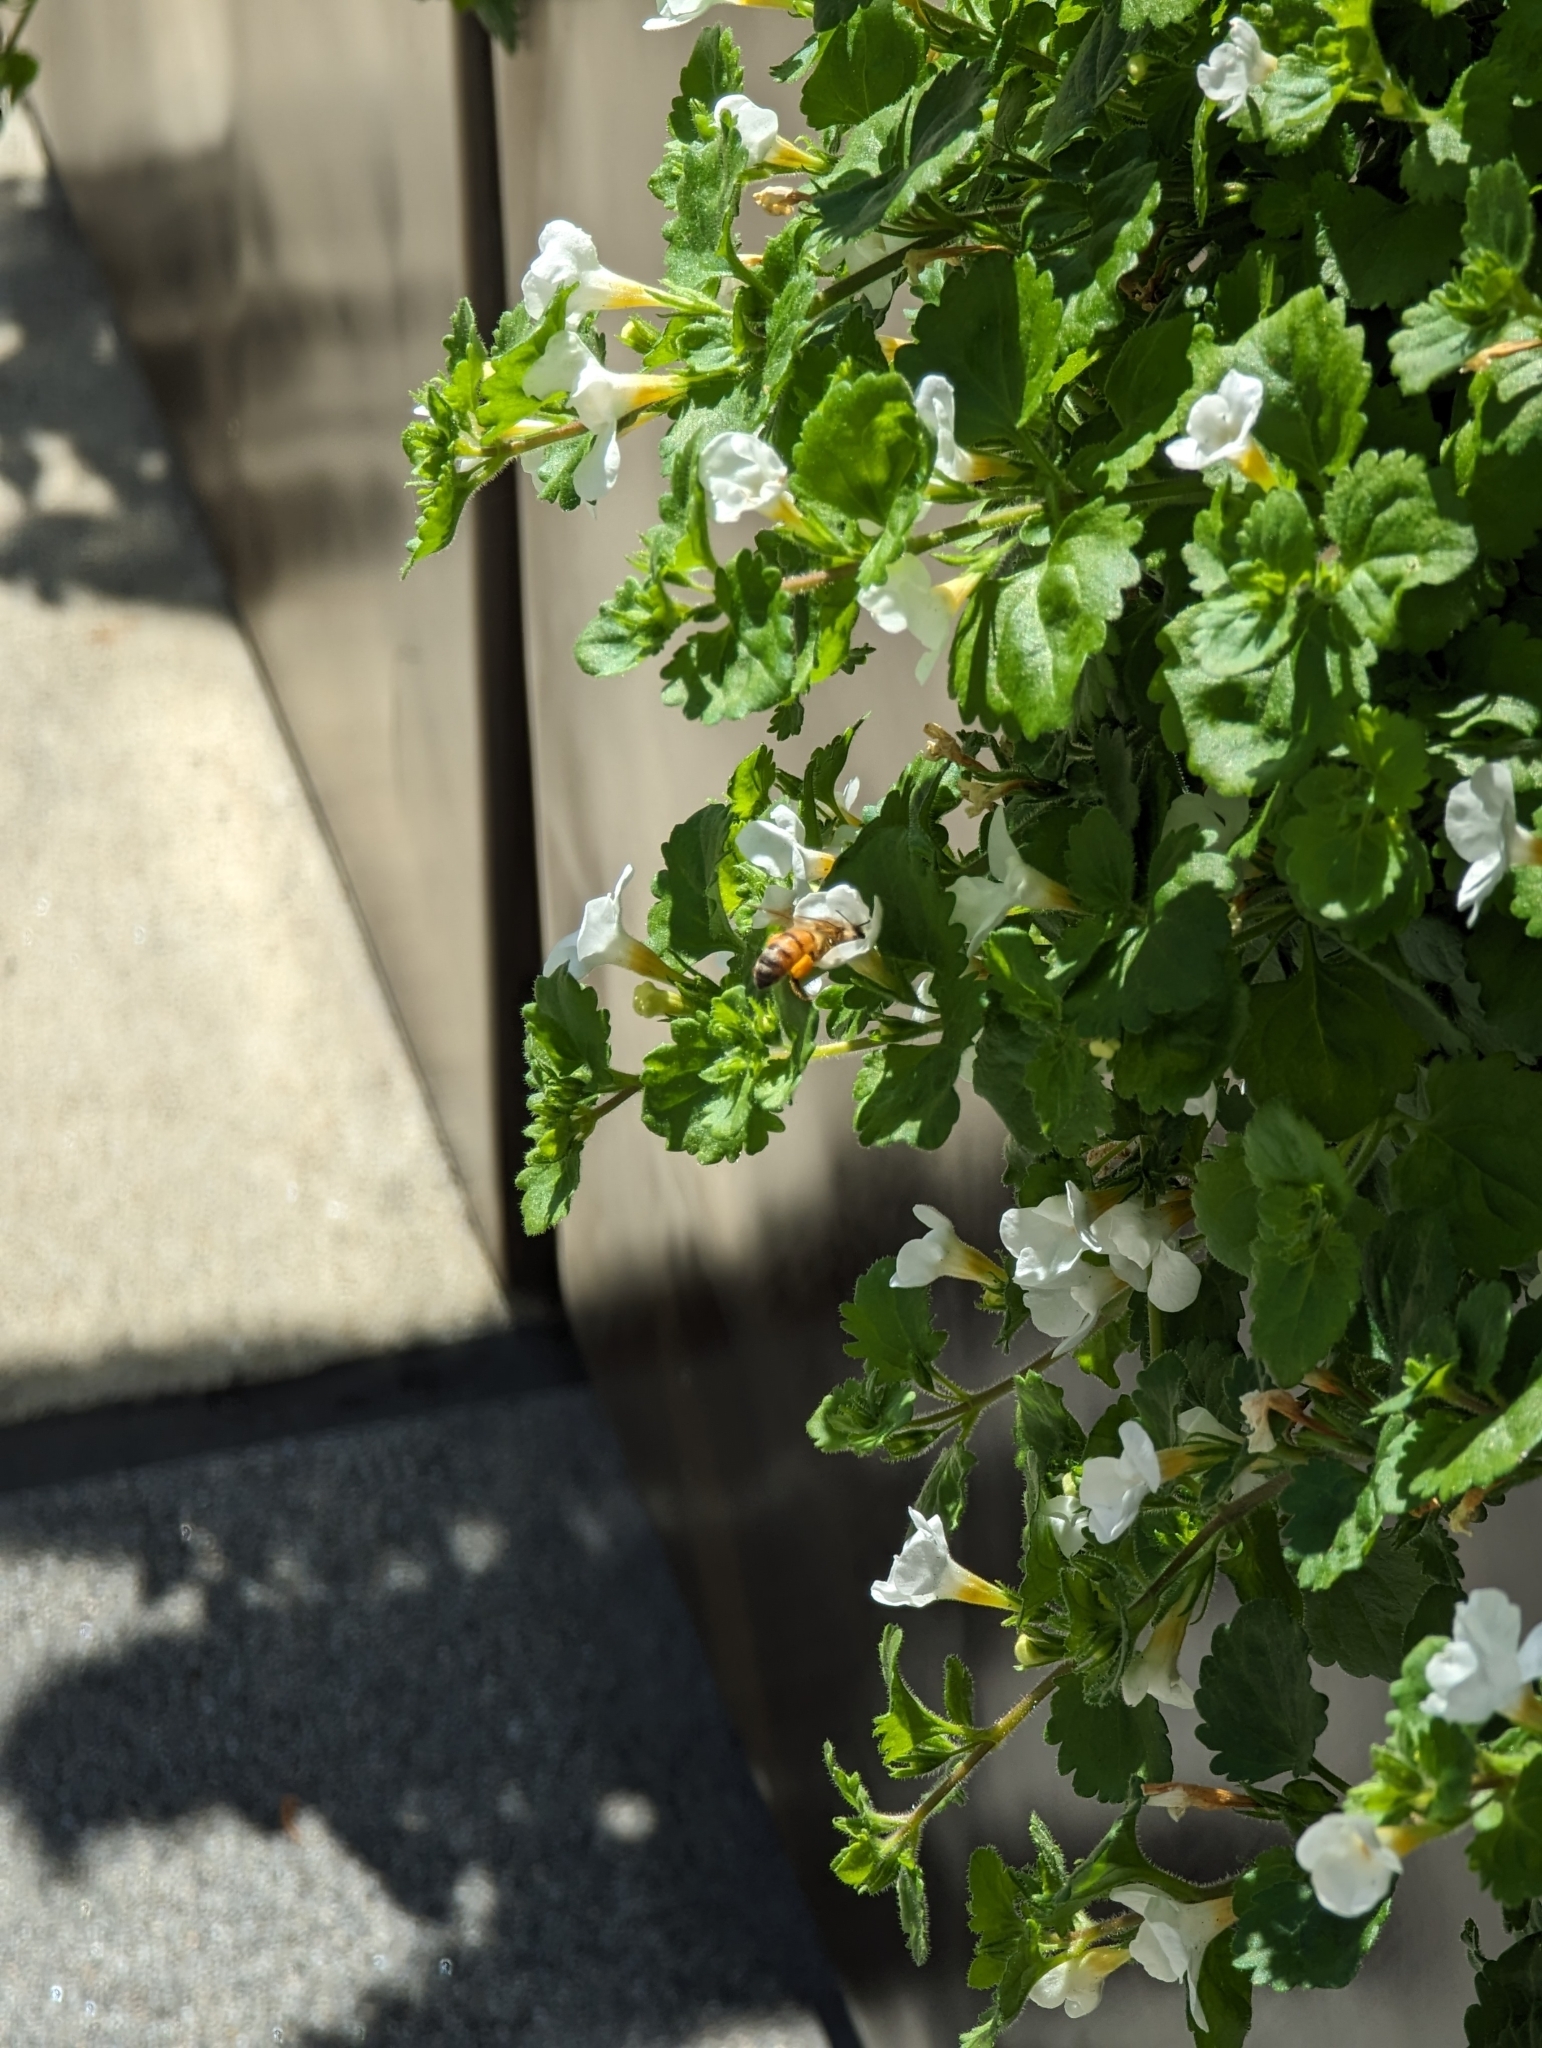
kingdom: Animalia
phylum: Arthropoda
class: Insecta
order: Hymenoptera
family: Apidae
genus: Apis
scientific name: Apis mellifera
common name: Honey bee
